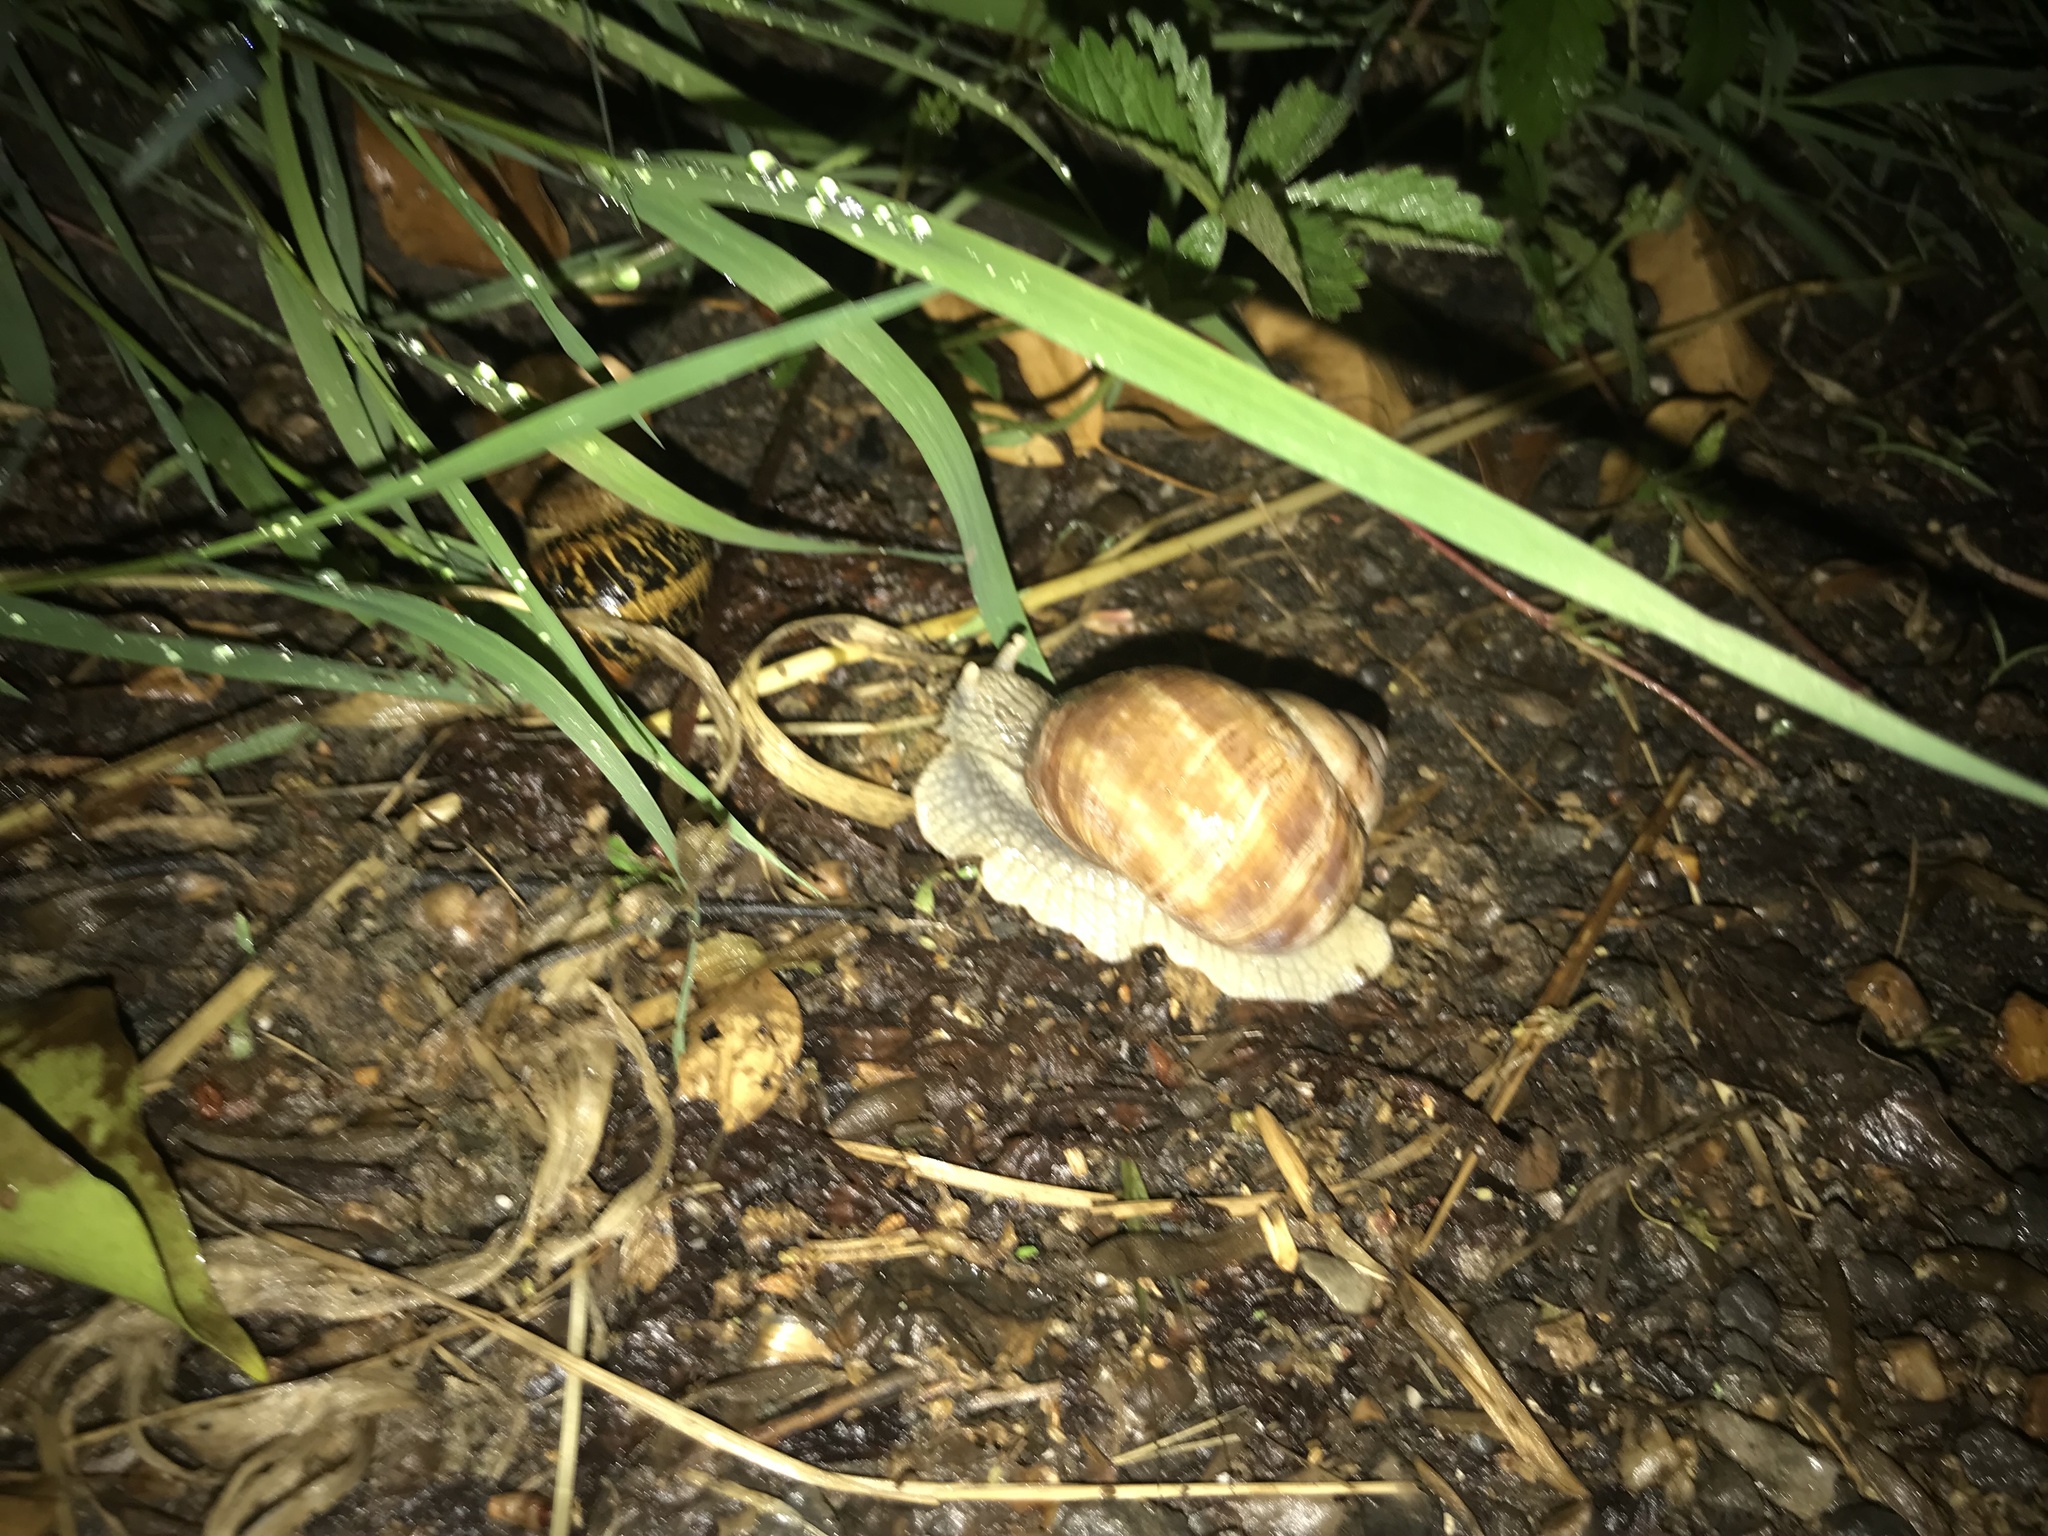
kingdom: Animalia
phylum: Mollusca
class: Gastropoda
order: Stylommatophora
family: Helicidae
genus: Helix
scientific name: Helix pomatia
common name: Roman snail
